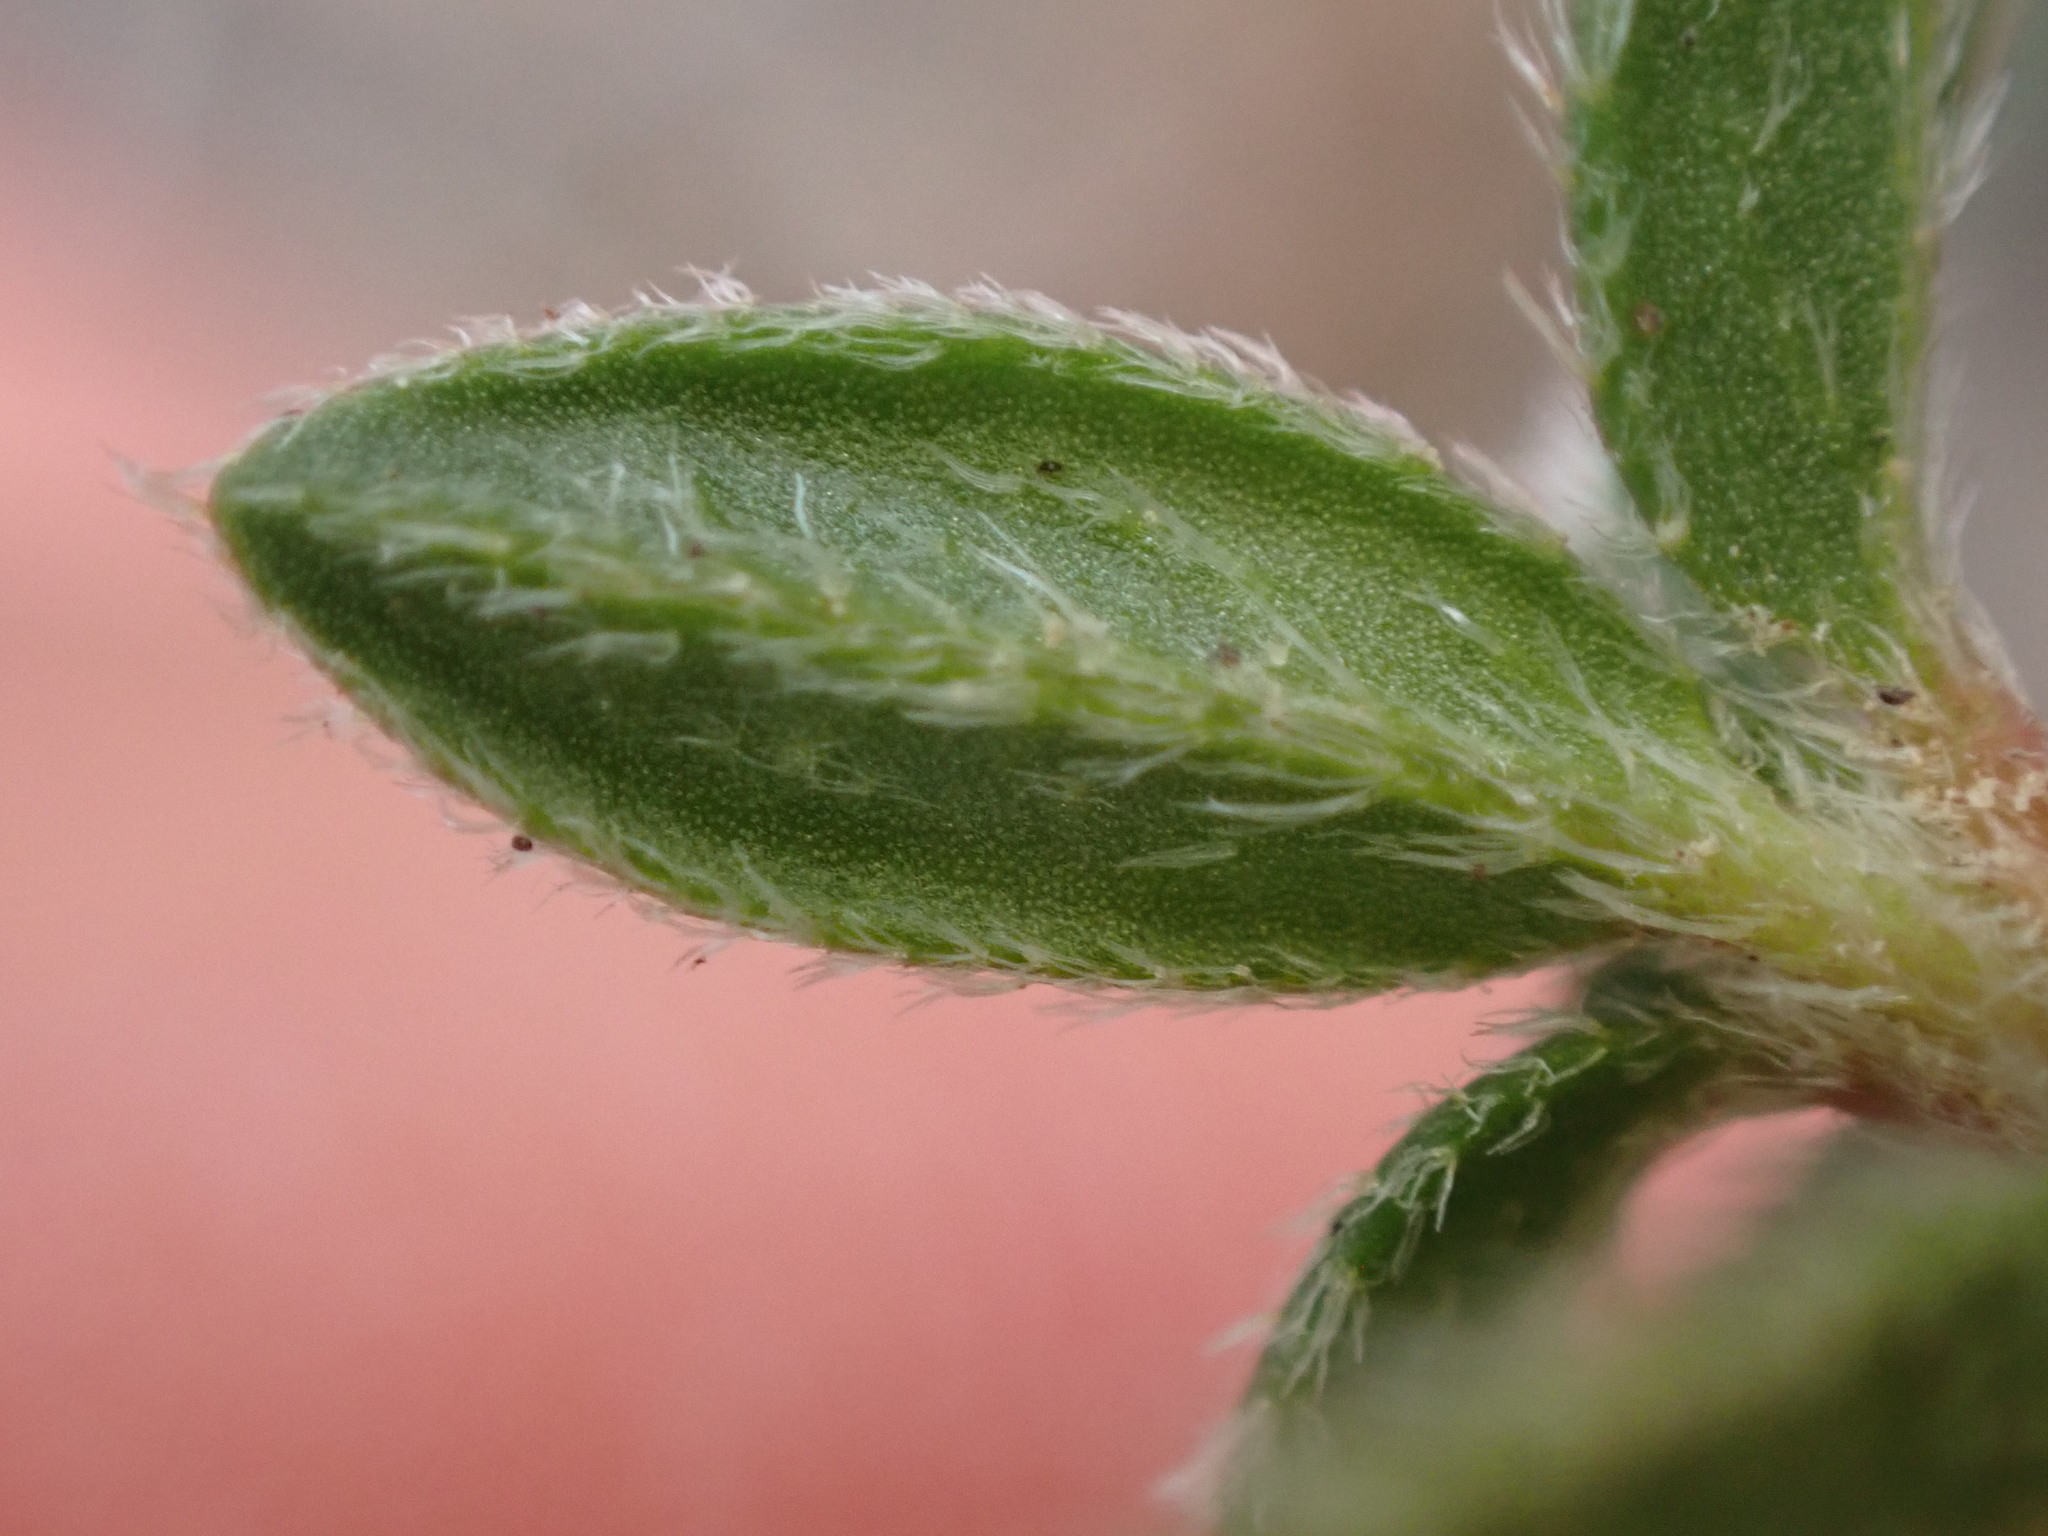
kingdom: Plantae
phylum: Tracheophyta
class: Magnoliopsida
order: Malvales
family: Cistaceae
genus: Helianthemum
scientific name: Helianthemum oelandicum
